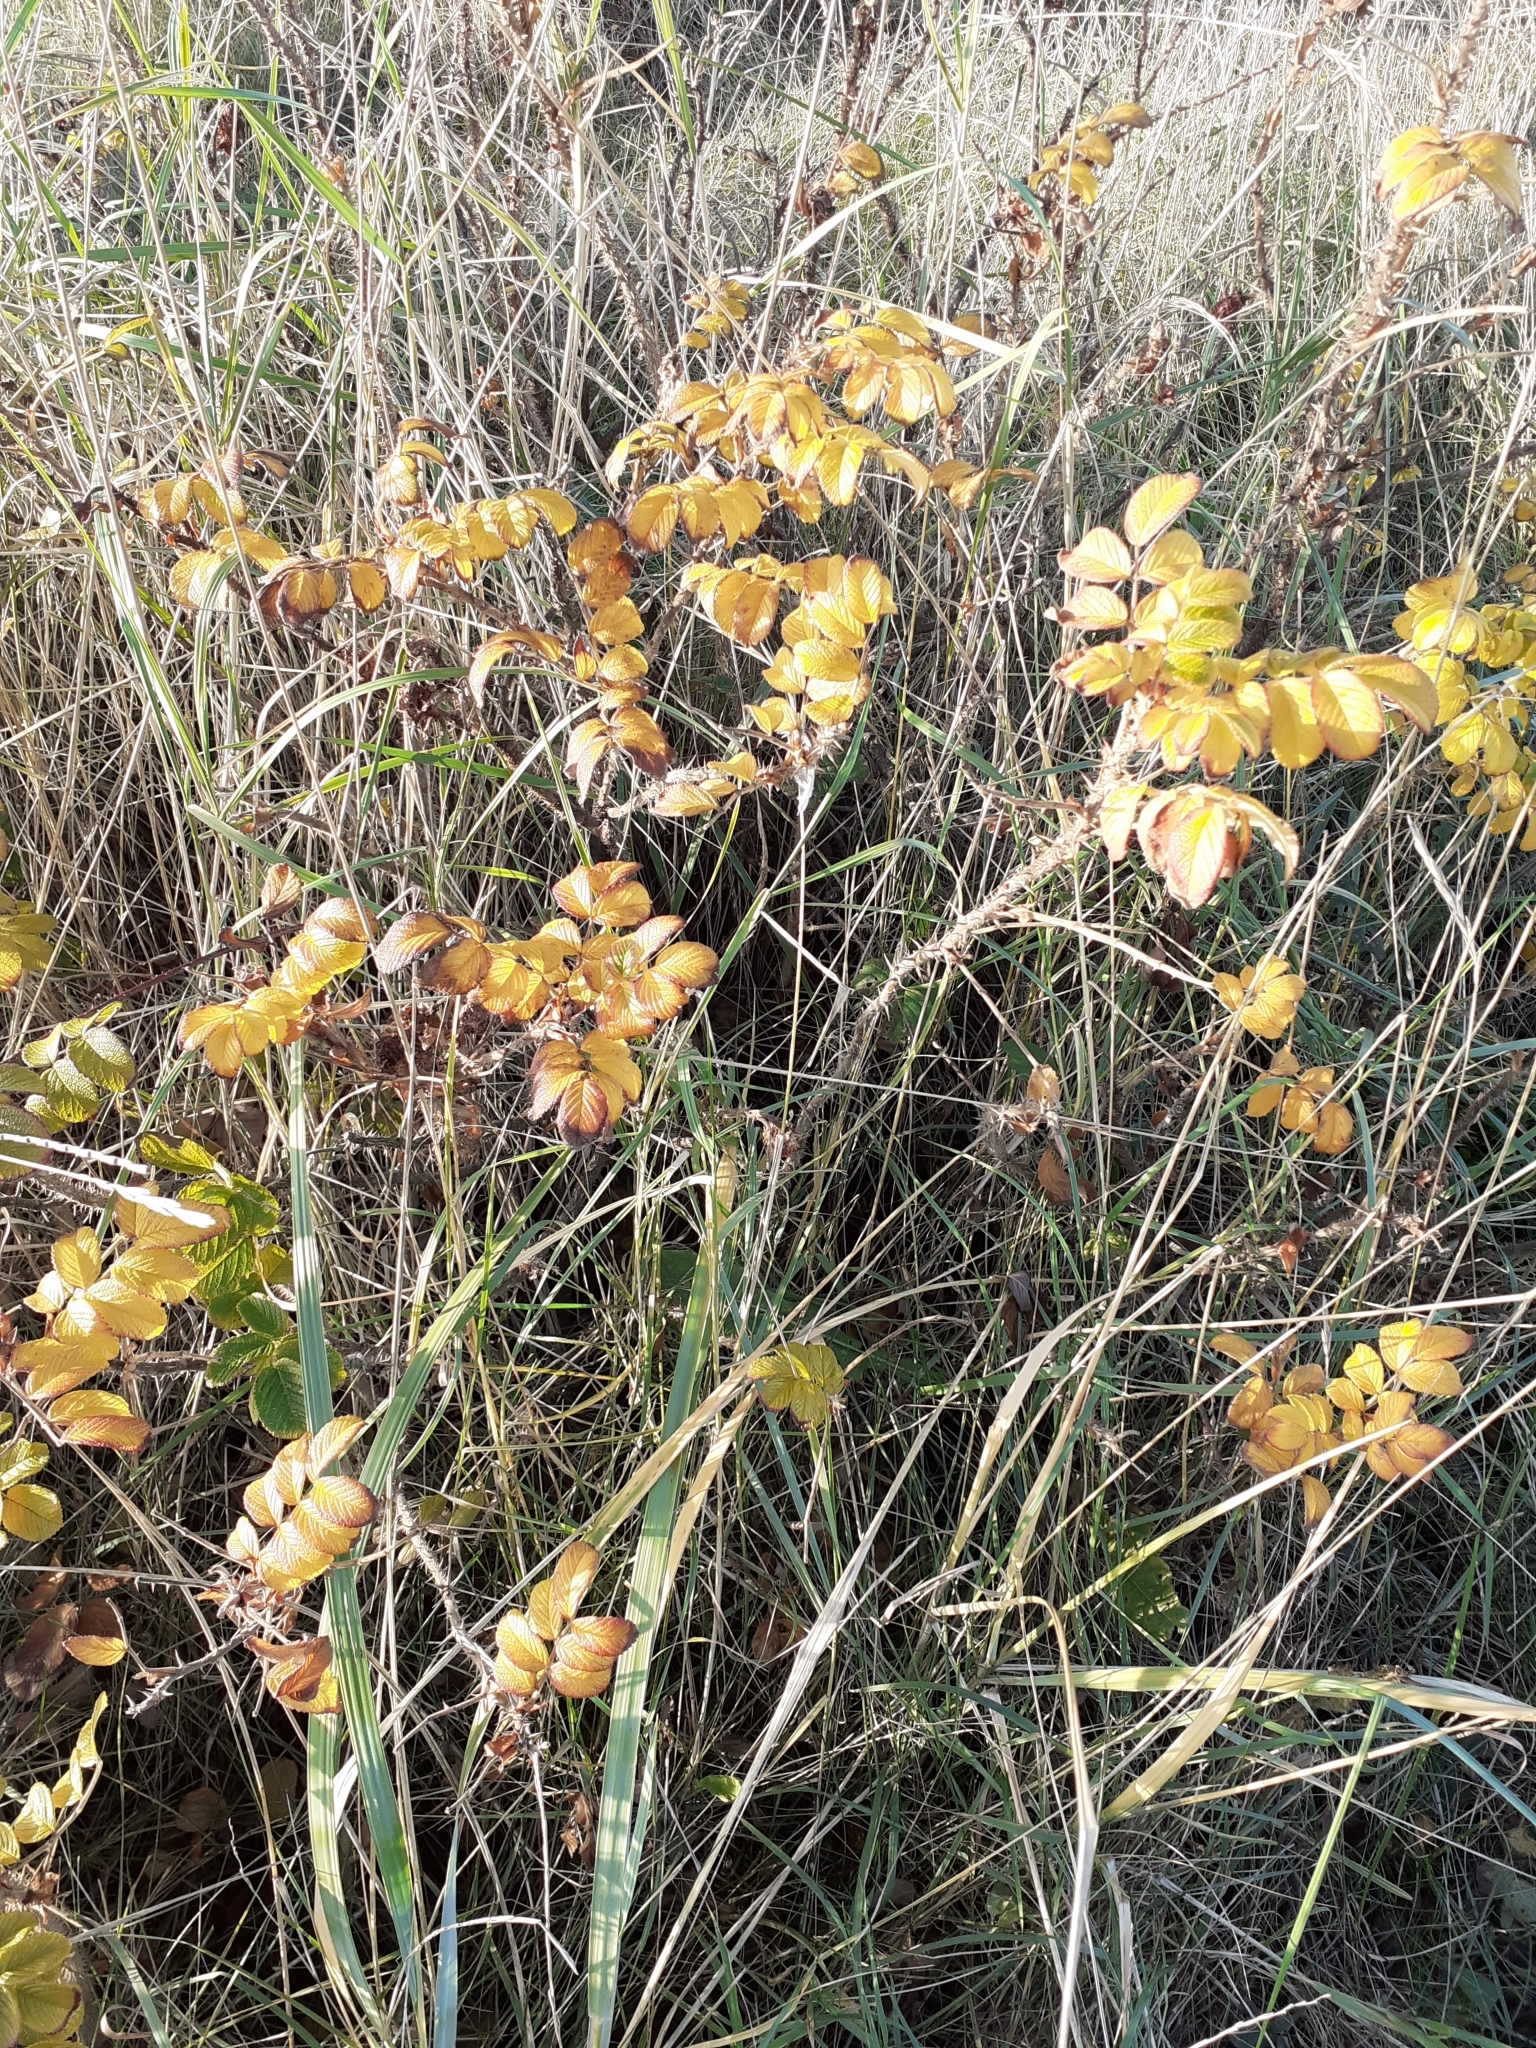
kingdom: Plantae
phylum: Tracheophyta
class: Magnoliopsida
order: Rosales
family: Rosaceae
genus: Rosa
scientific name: Rosa rugosa
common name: Japanese rose
